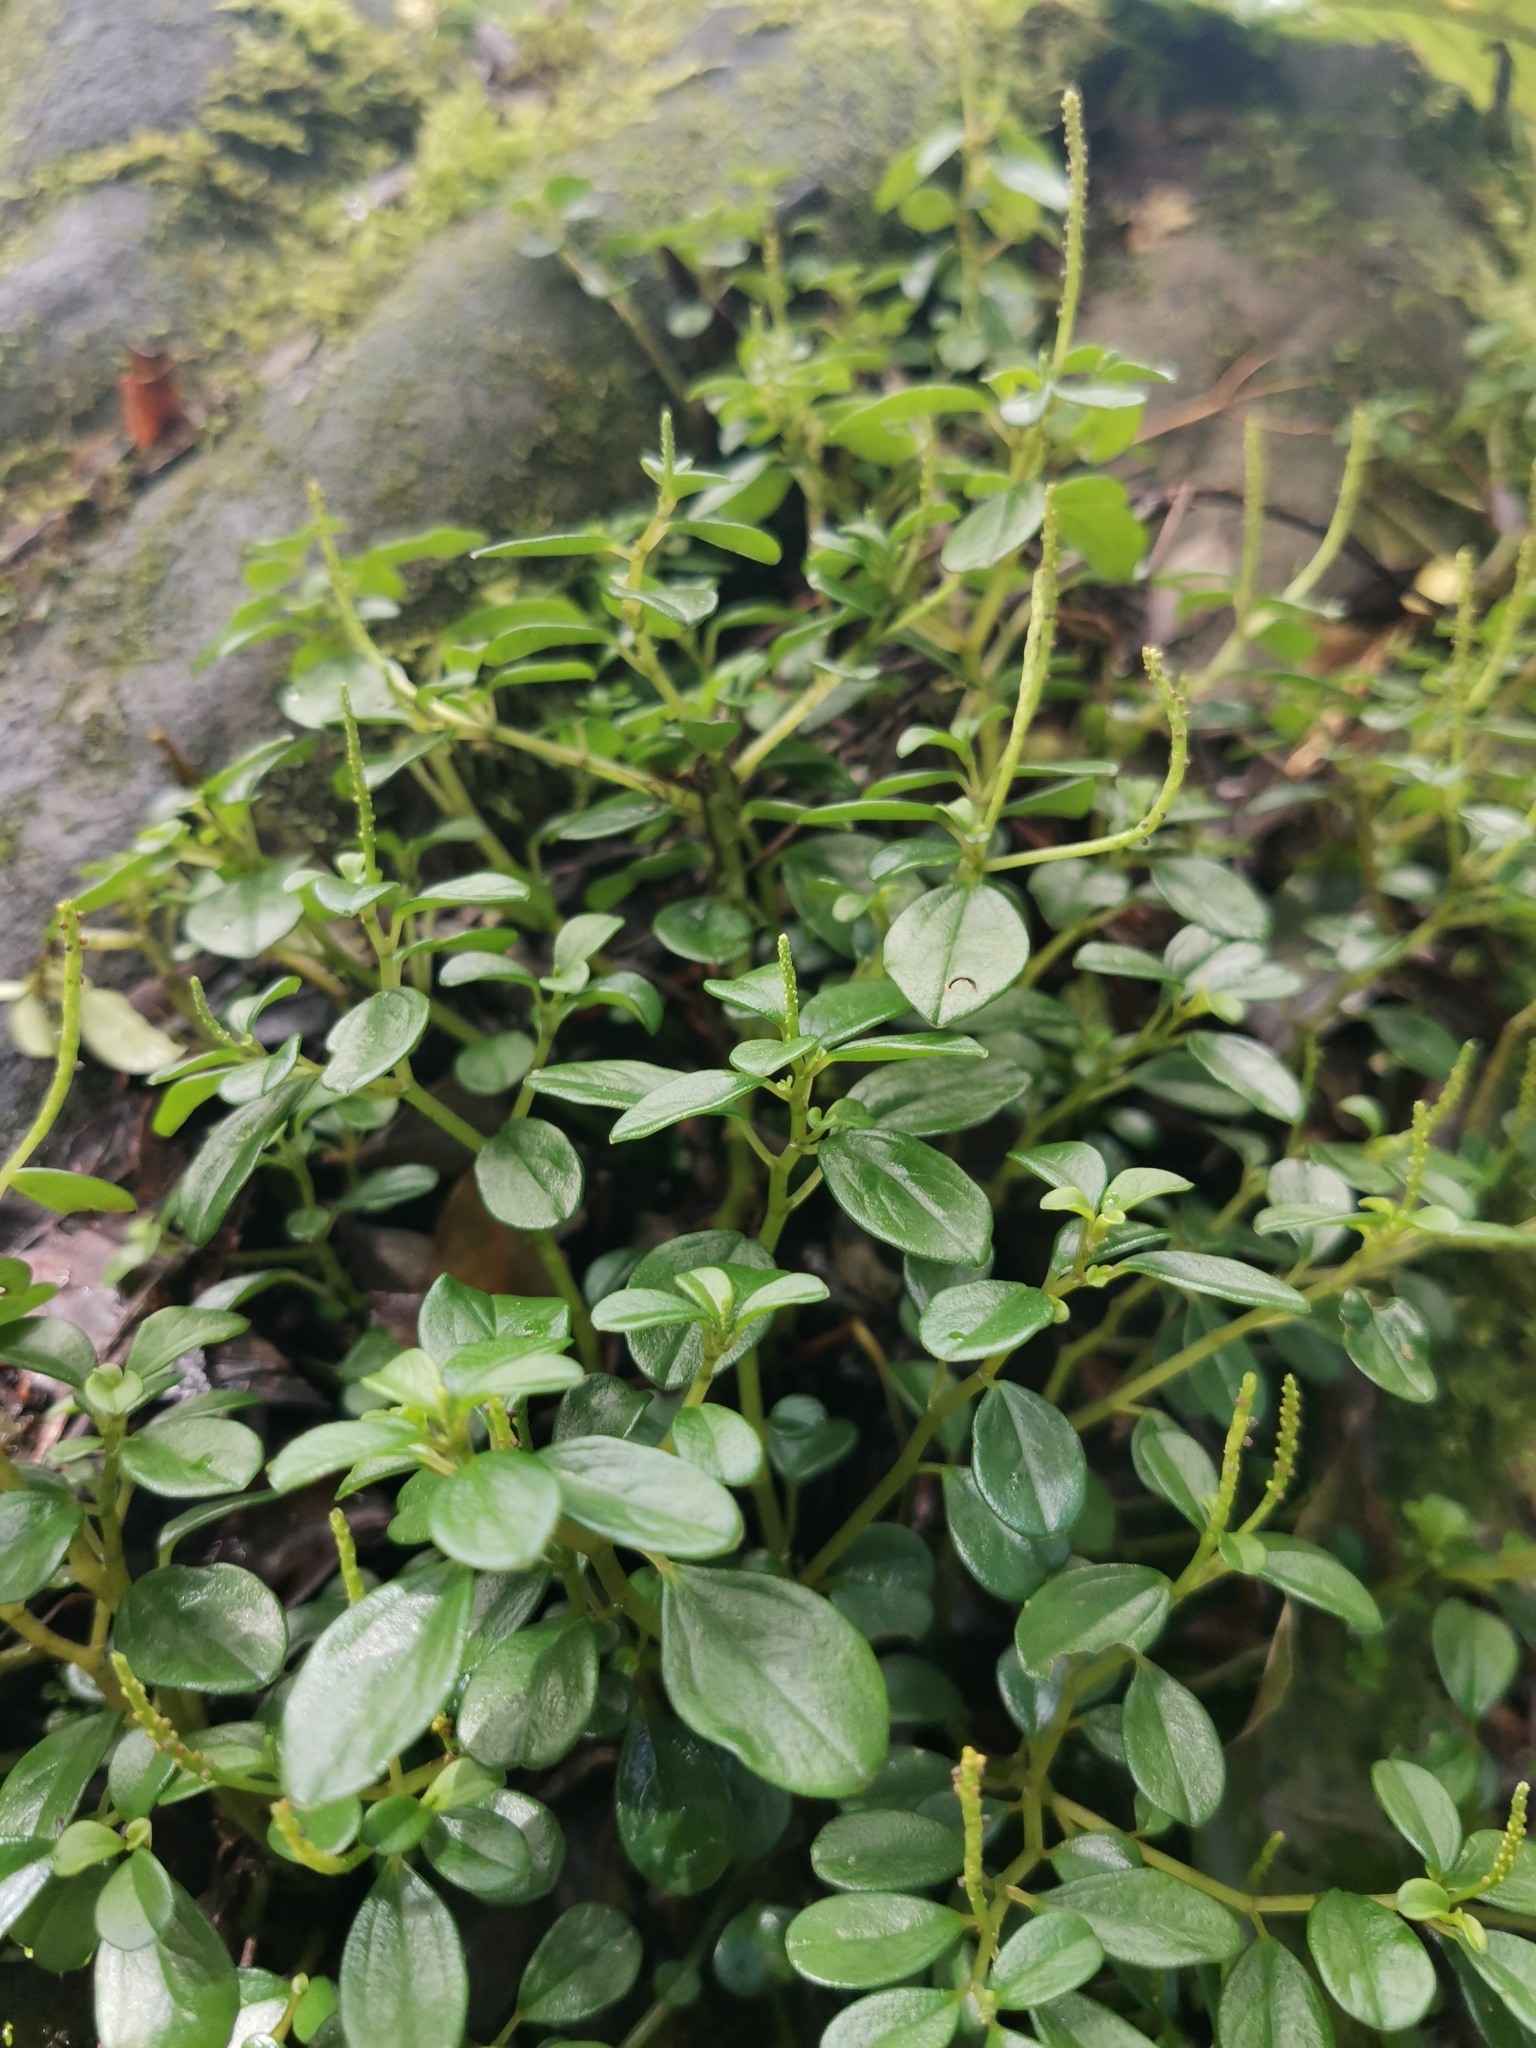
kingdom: Plantae
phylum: Tracheophyta
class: Magnoliopsida
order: Piperales
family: Piperaceae
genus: Peperomia
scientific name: Peperomia retusa
